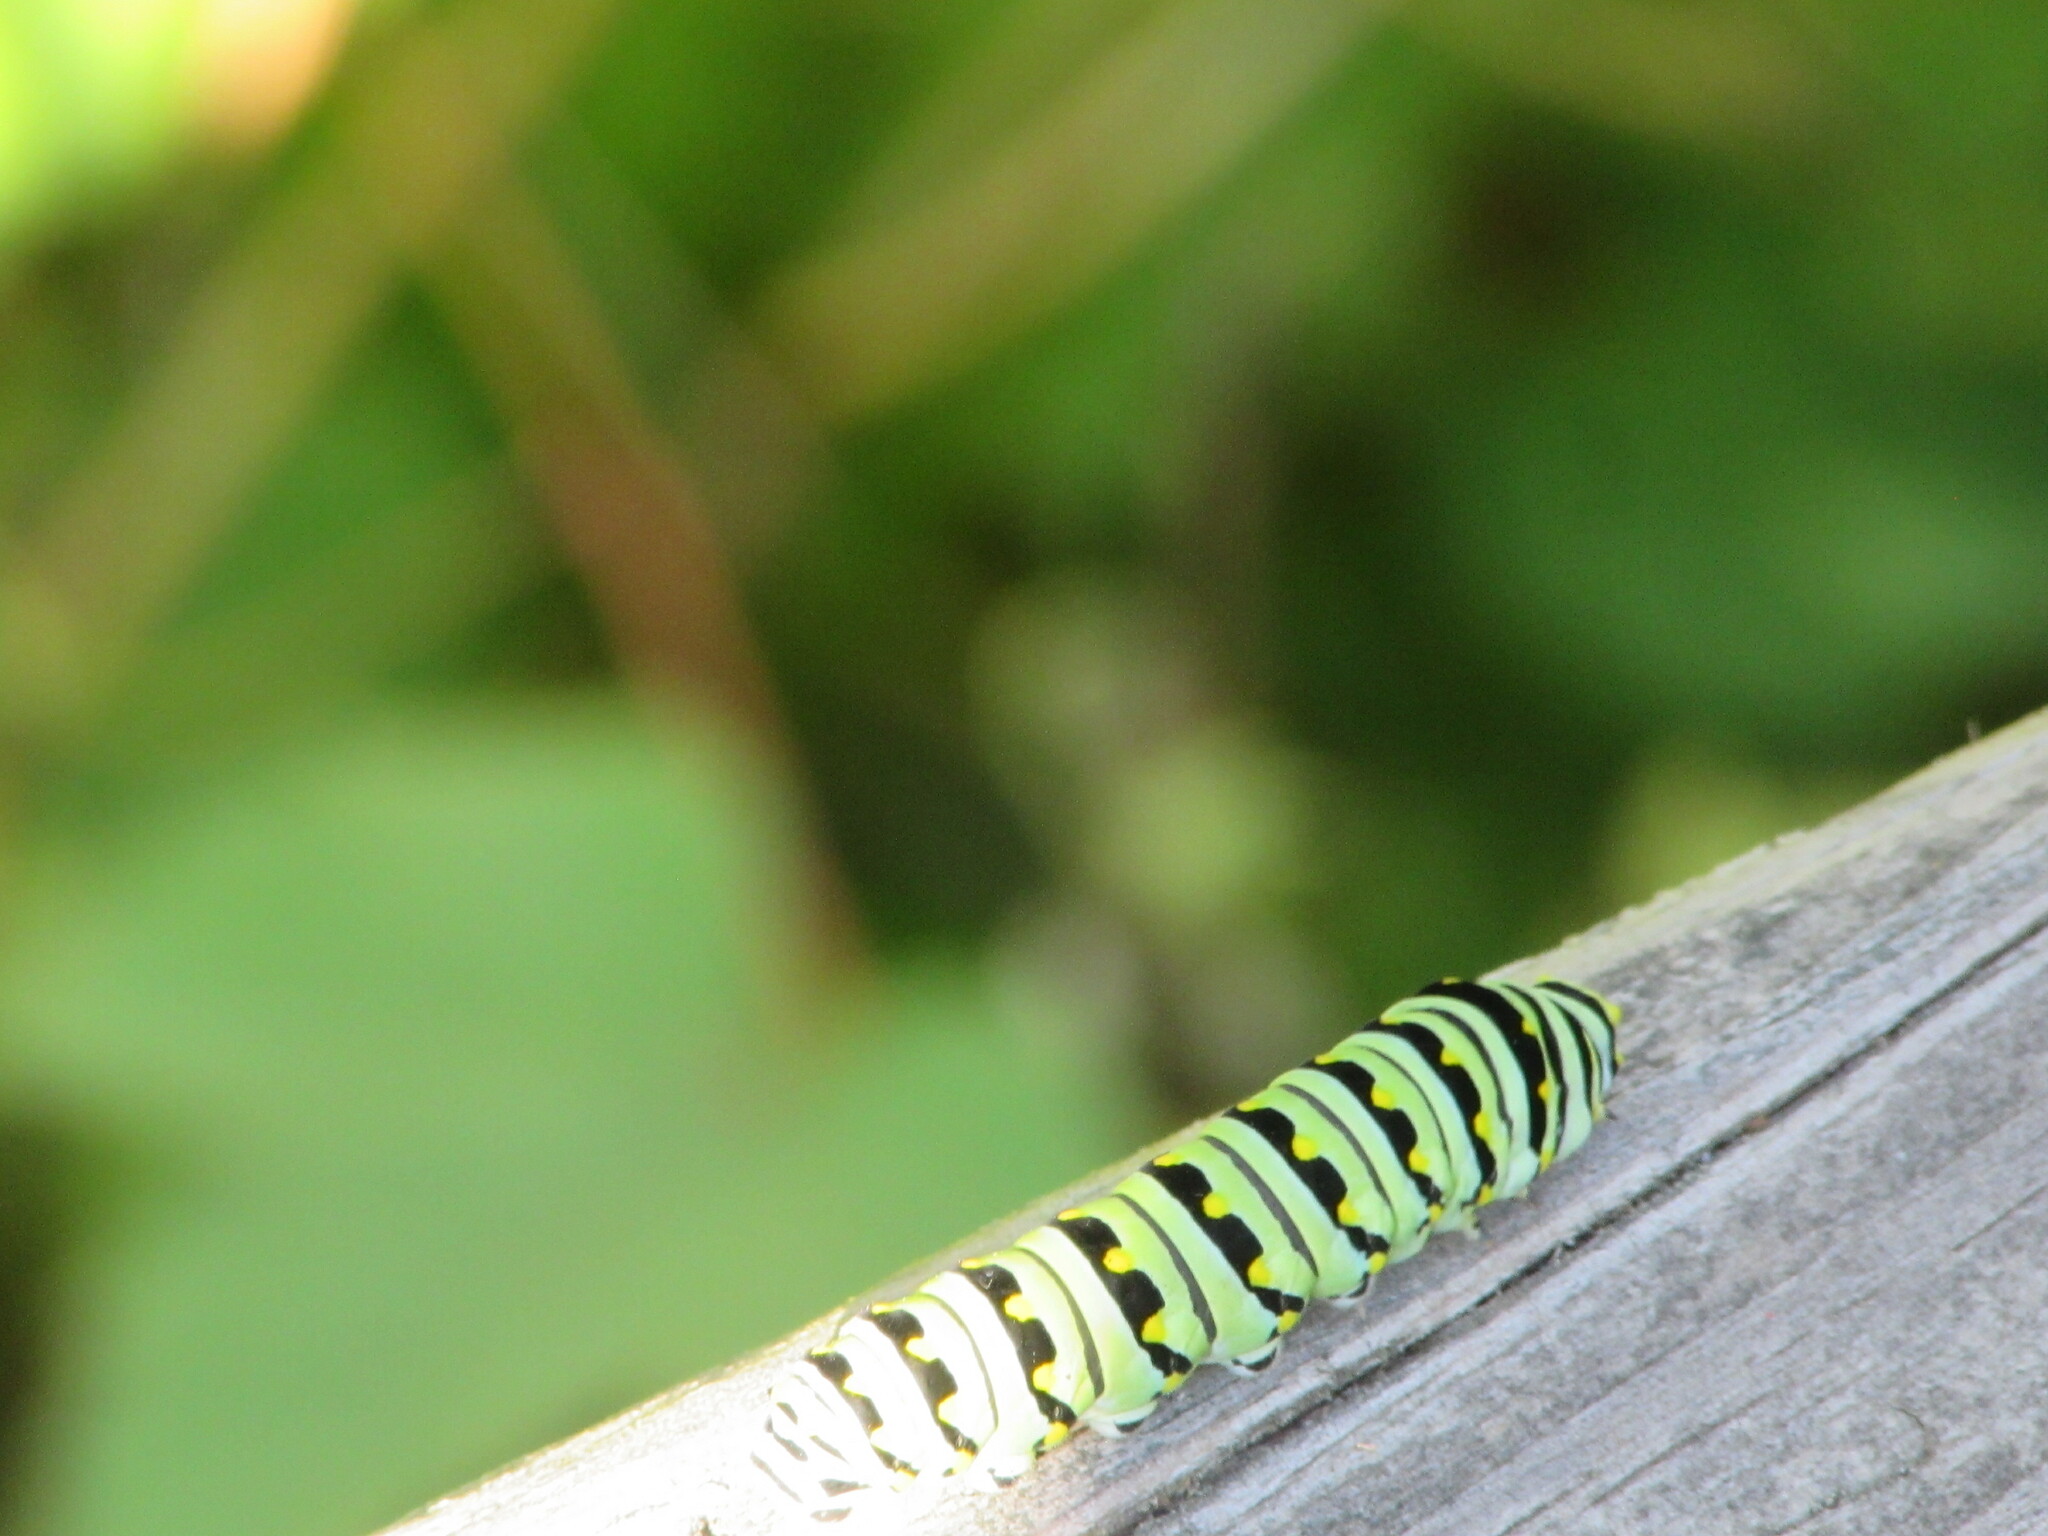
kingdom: Animalia
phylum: Arthropoda
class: Insecta
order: Lepidoptera
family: Papilionidae
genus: Papilio
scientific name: Papilio polyxenes
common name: Black swallowtail
